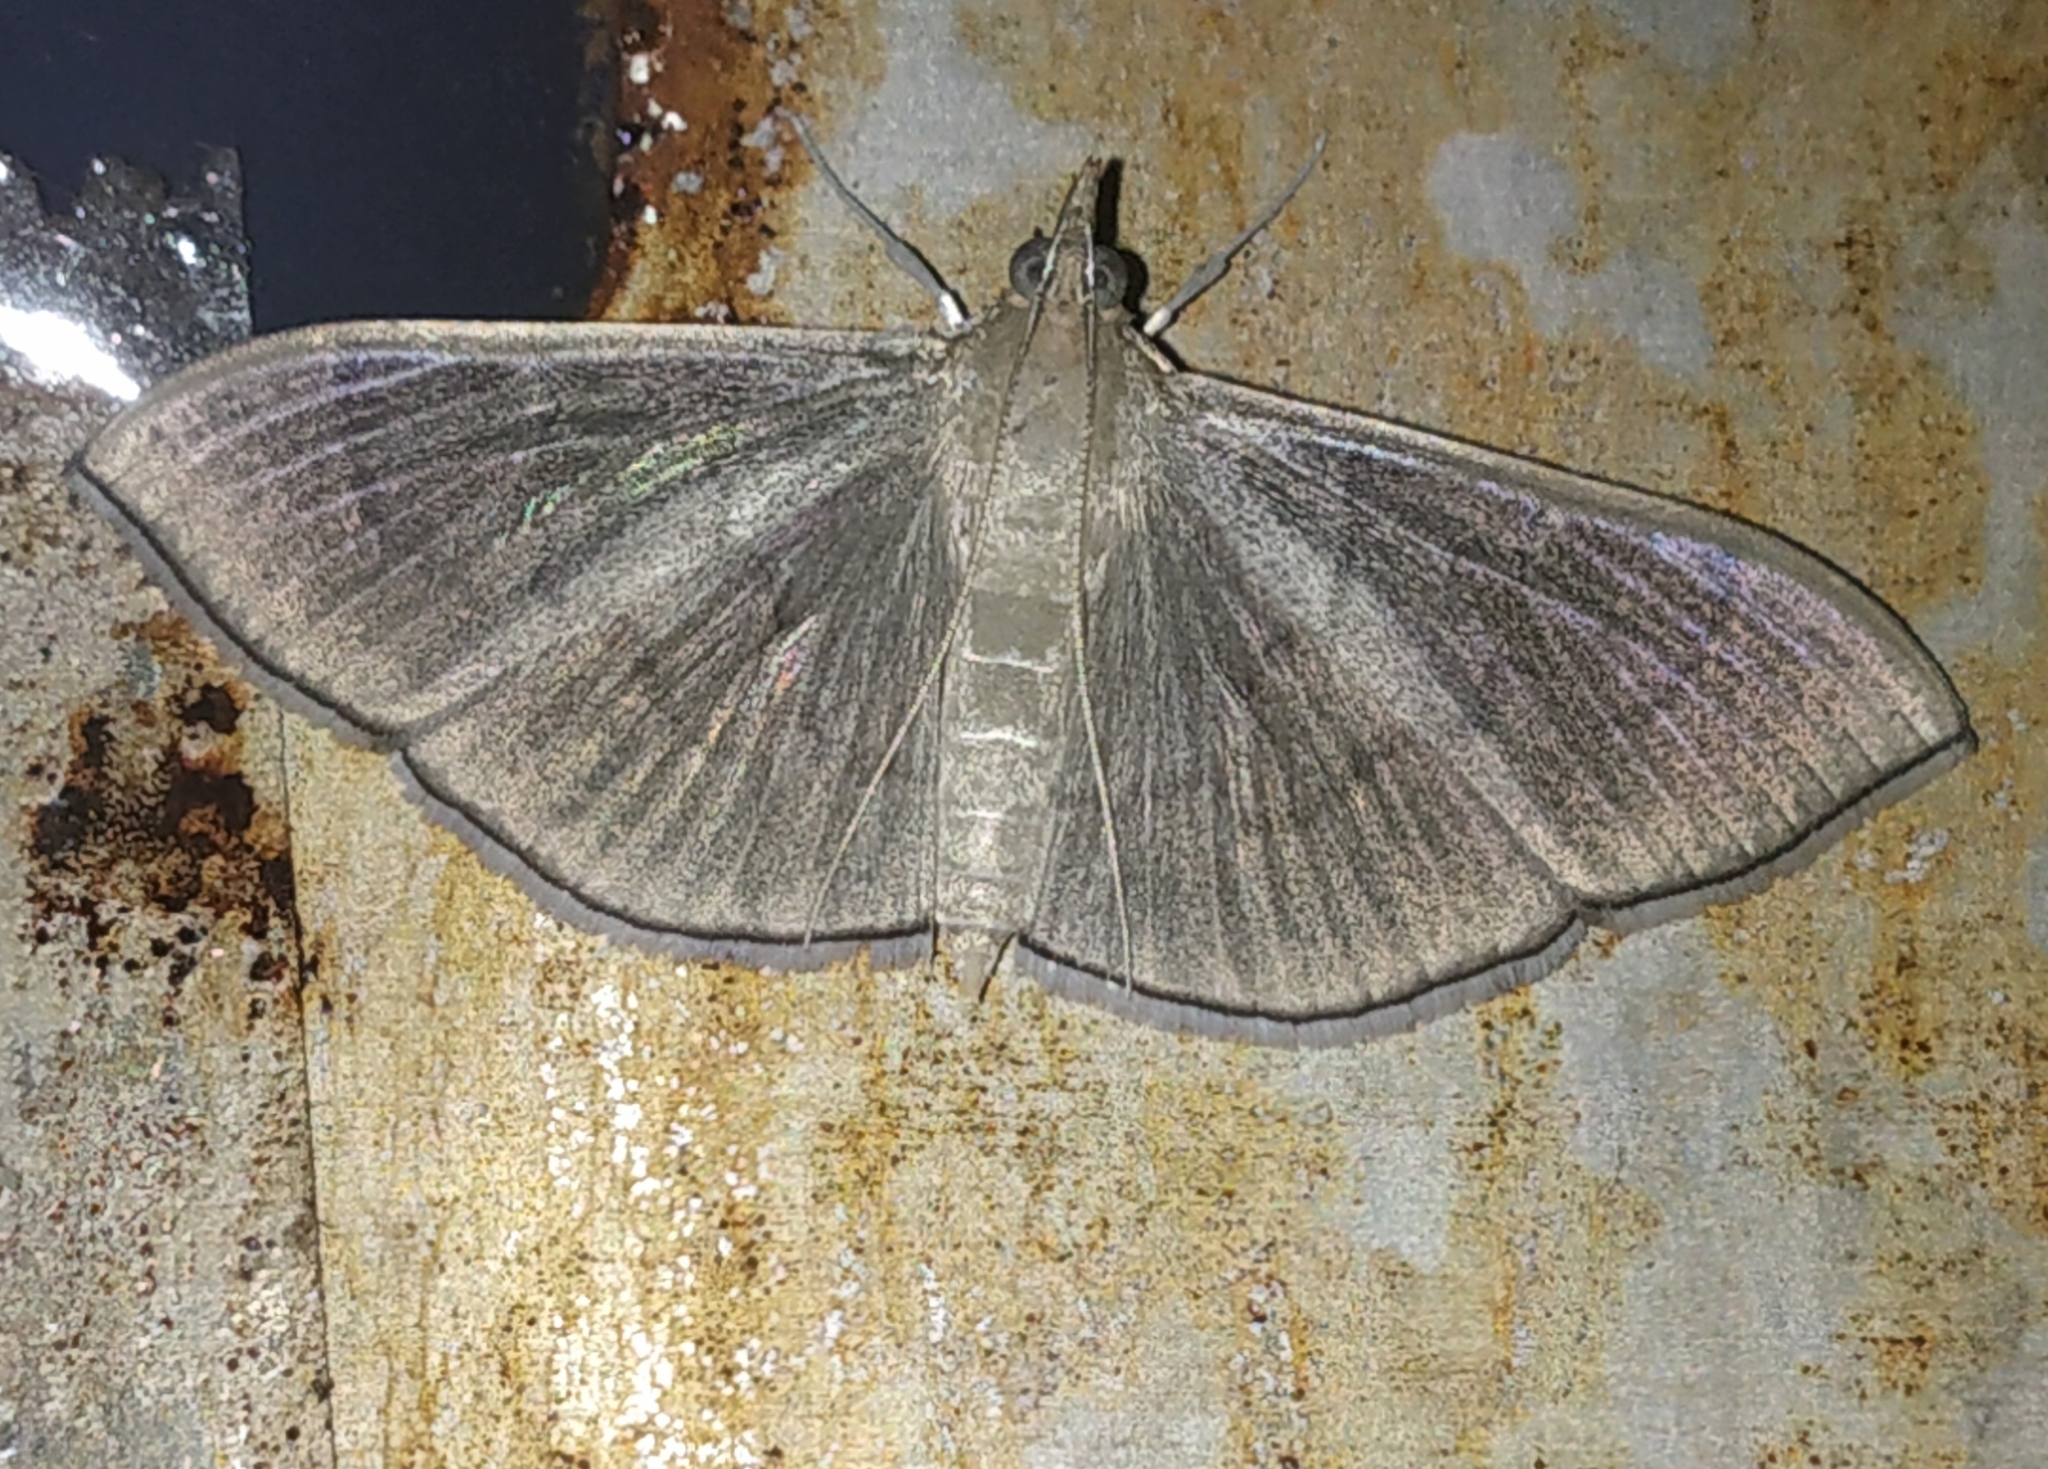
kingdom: Animalia
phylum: Arthropoda
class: Insecta
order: Lepidoptera
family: Crambidae
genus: Lamprophaia
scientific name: Lamprophaia ablactalis
